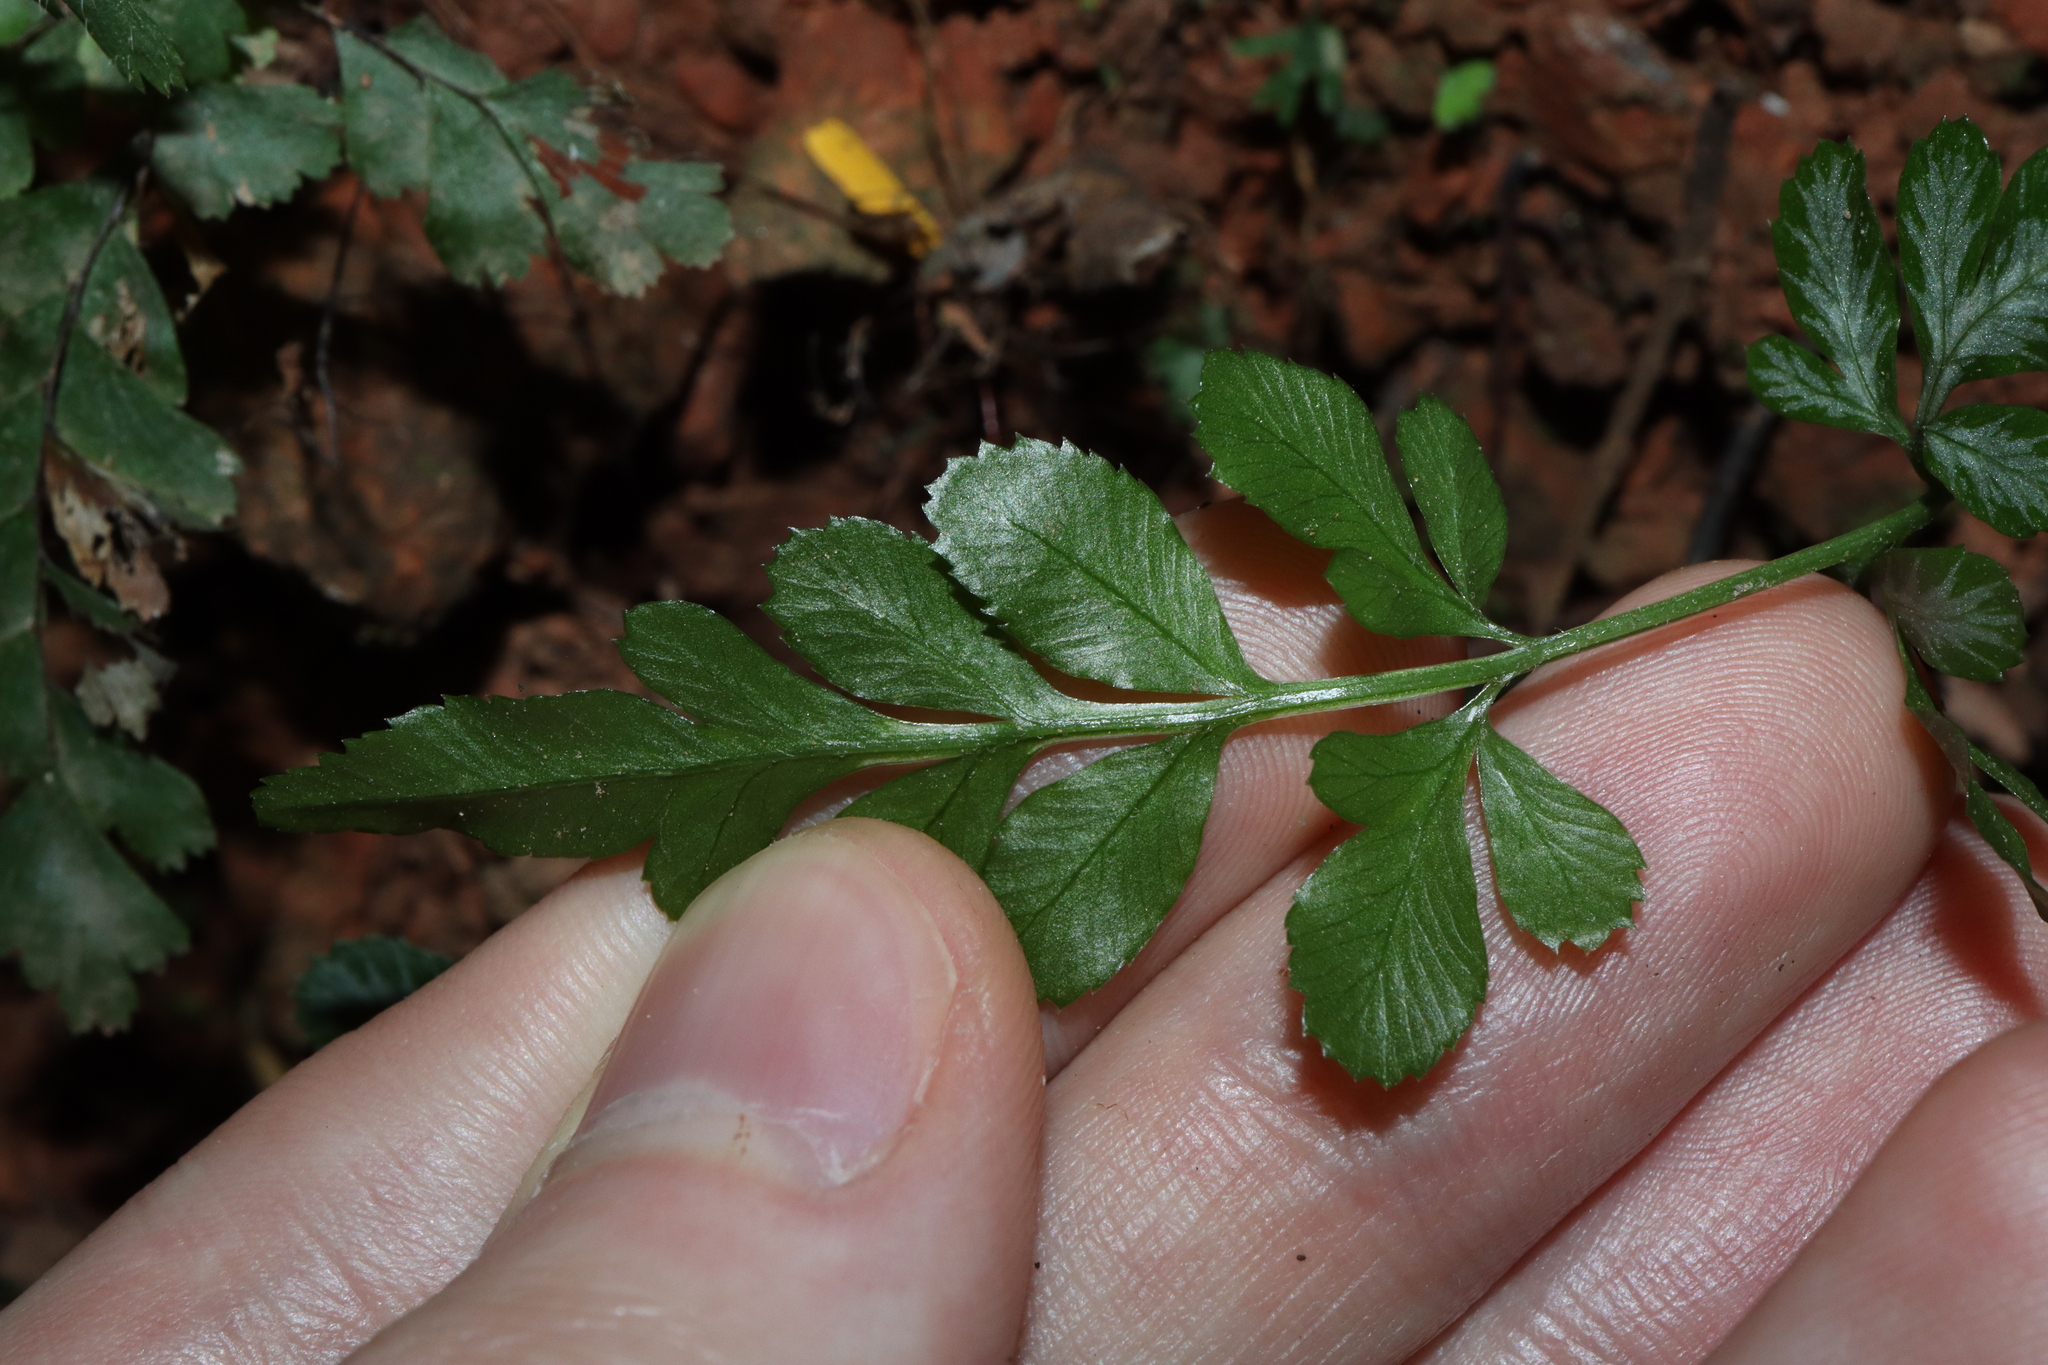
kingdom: Plantae
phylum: Tracheophyta
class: Polypodiopsida
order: Polypodiales
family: Pteridaceae
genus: Pteris
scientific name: Pteris ensiformis
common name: Sword brake
